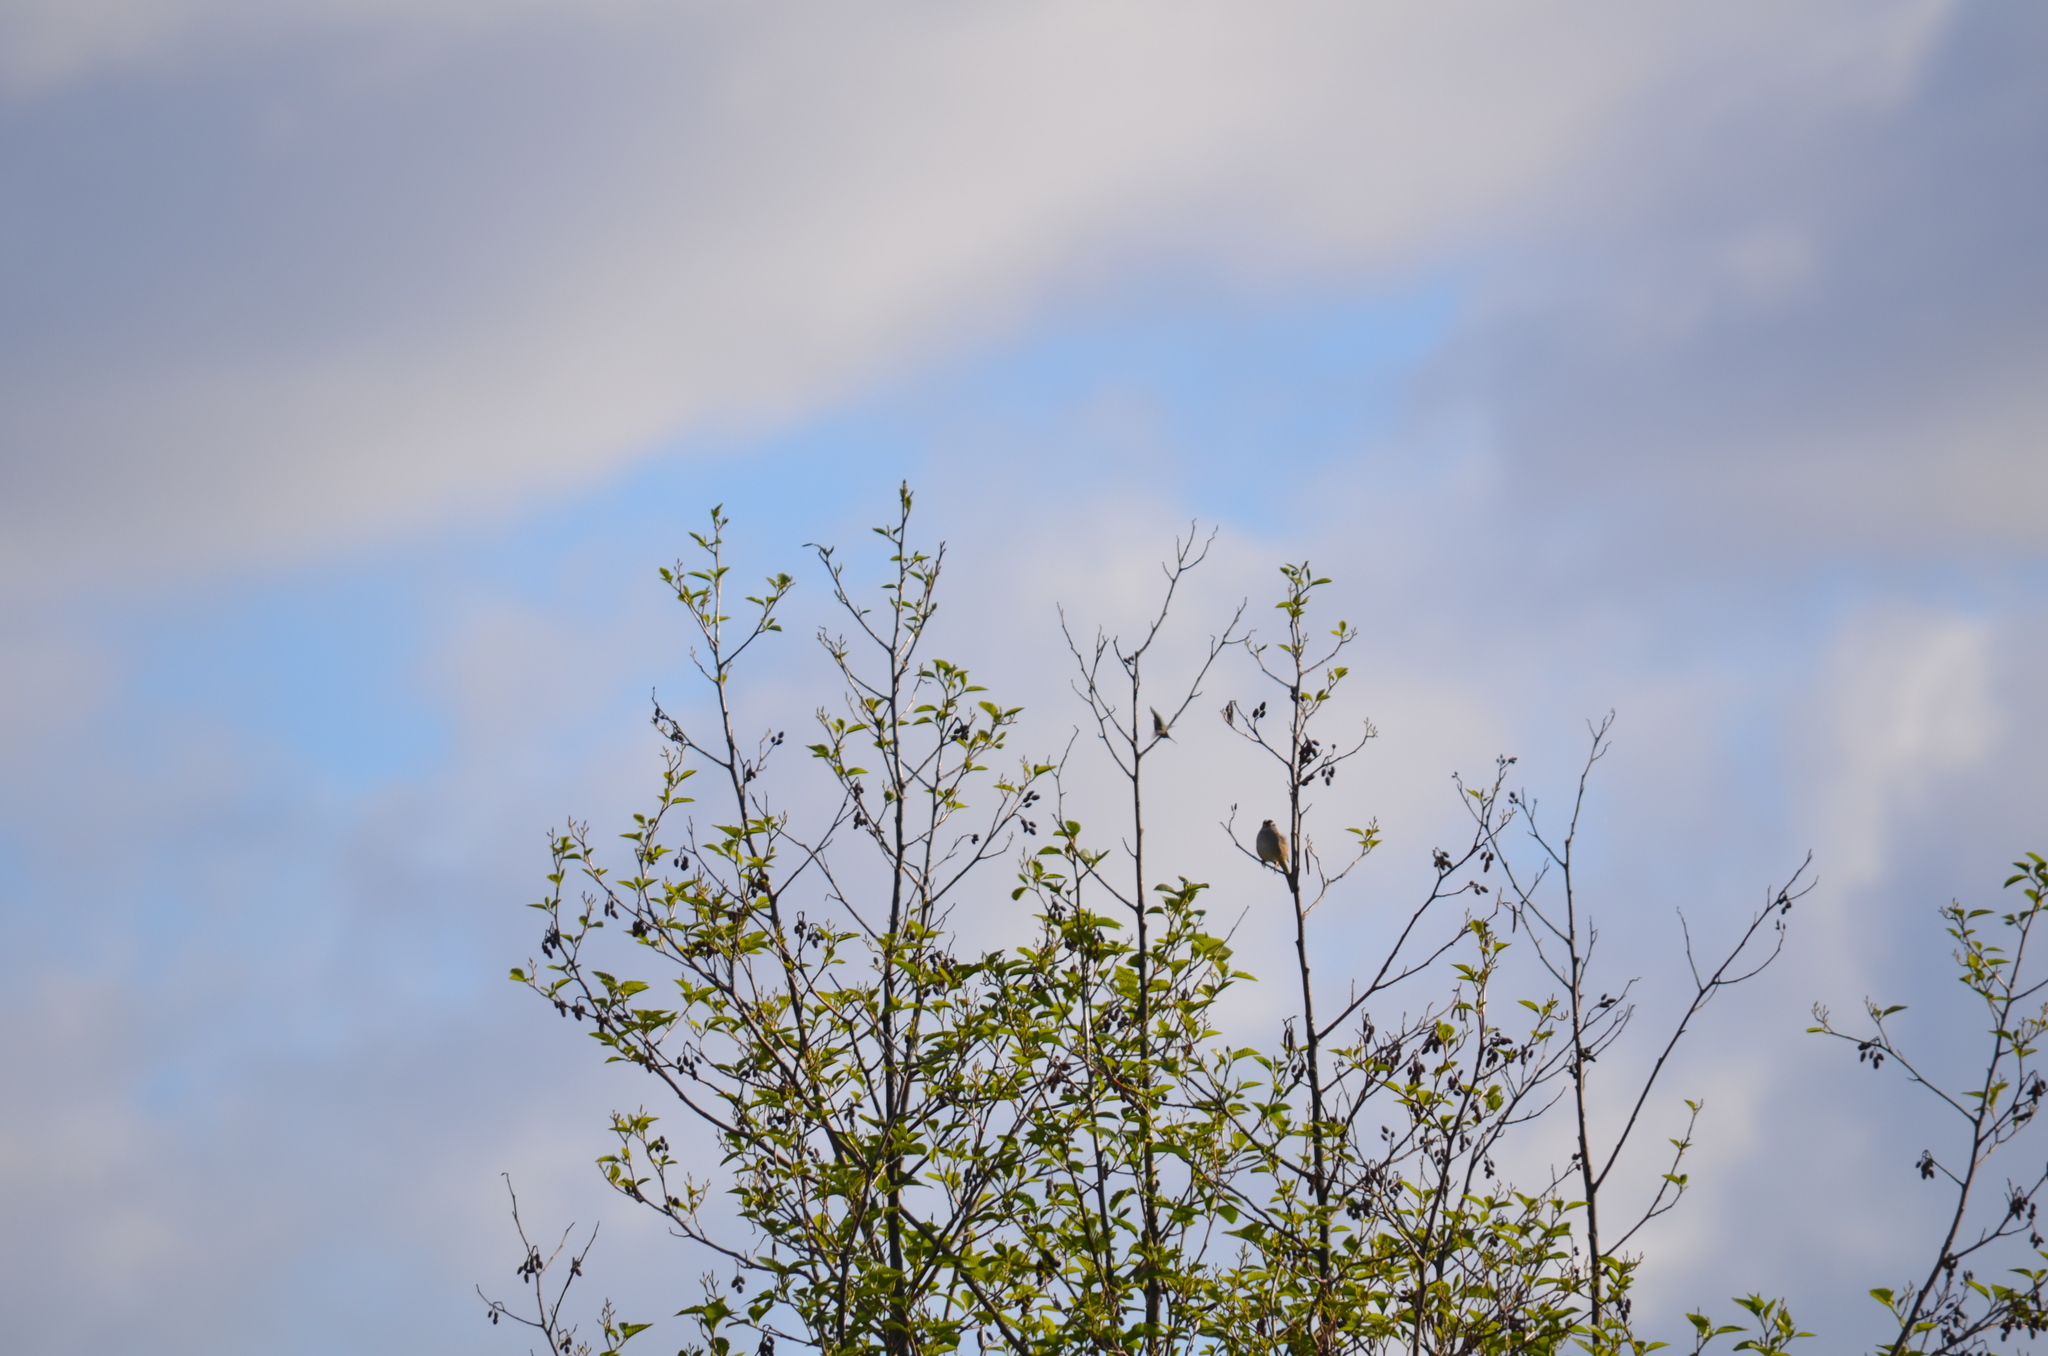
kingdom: Animalia
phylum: Chordata
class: Aves
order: Passeriformes
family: Passerellidae
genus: Zonotrichia
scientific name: Zonotrichia leucophrys
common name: White-crowned sparrow
